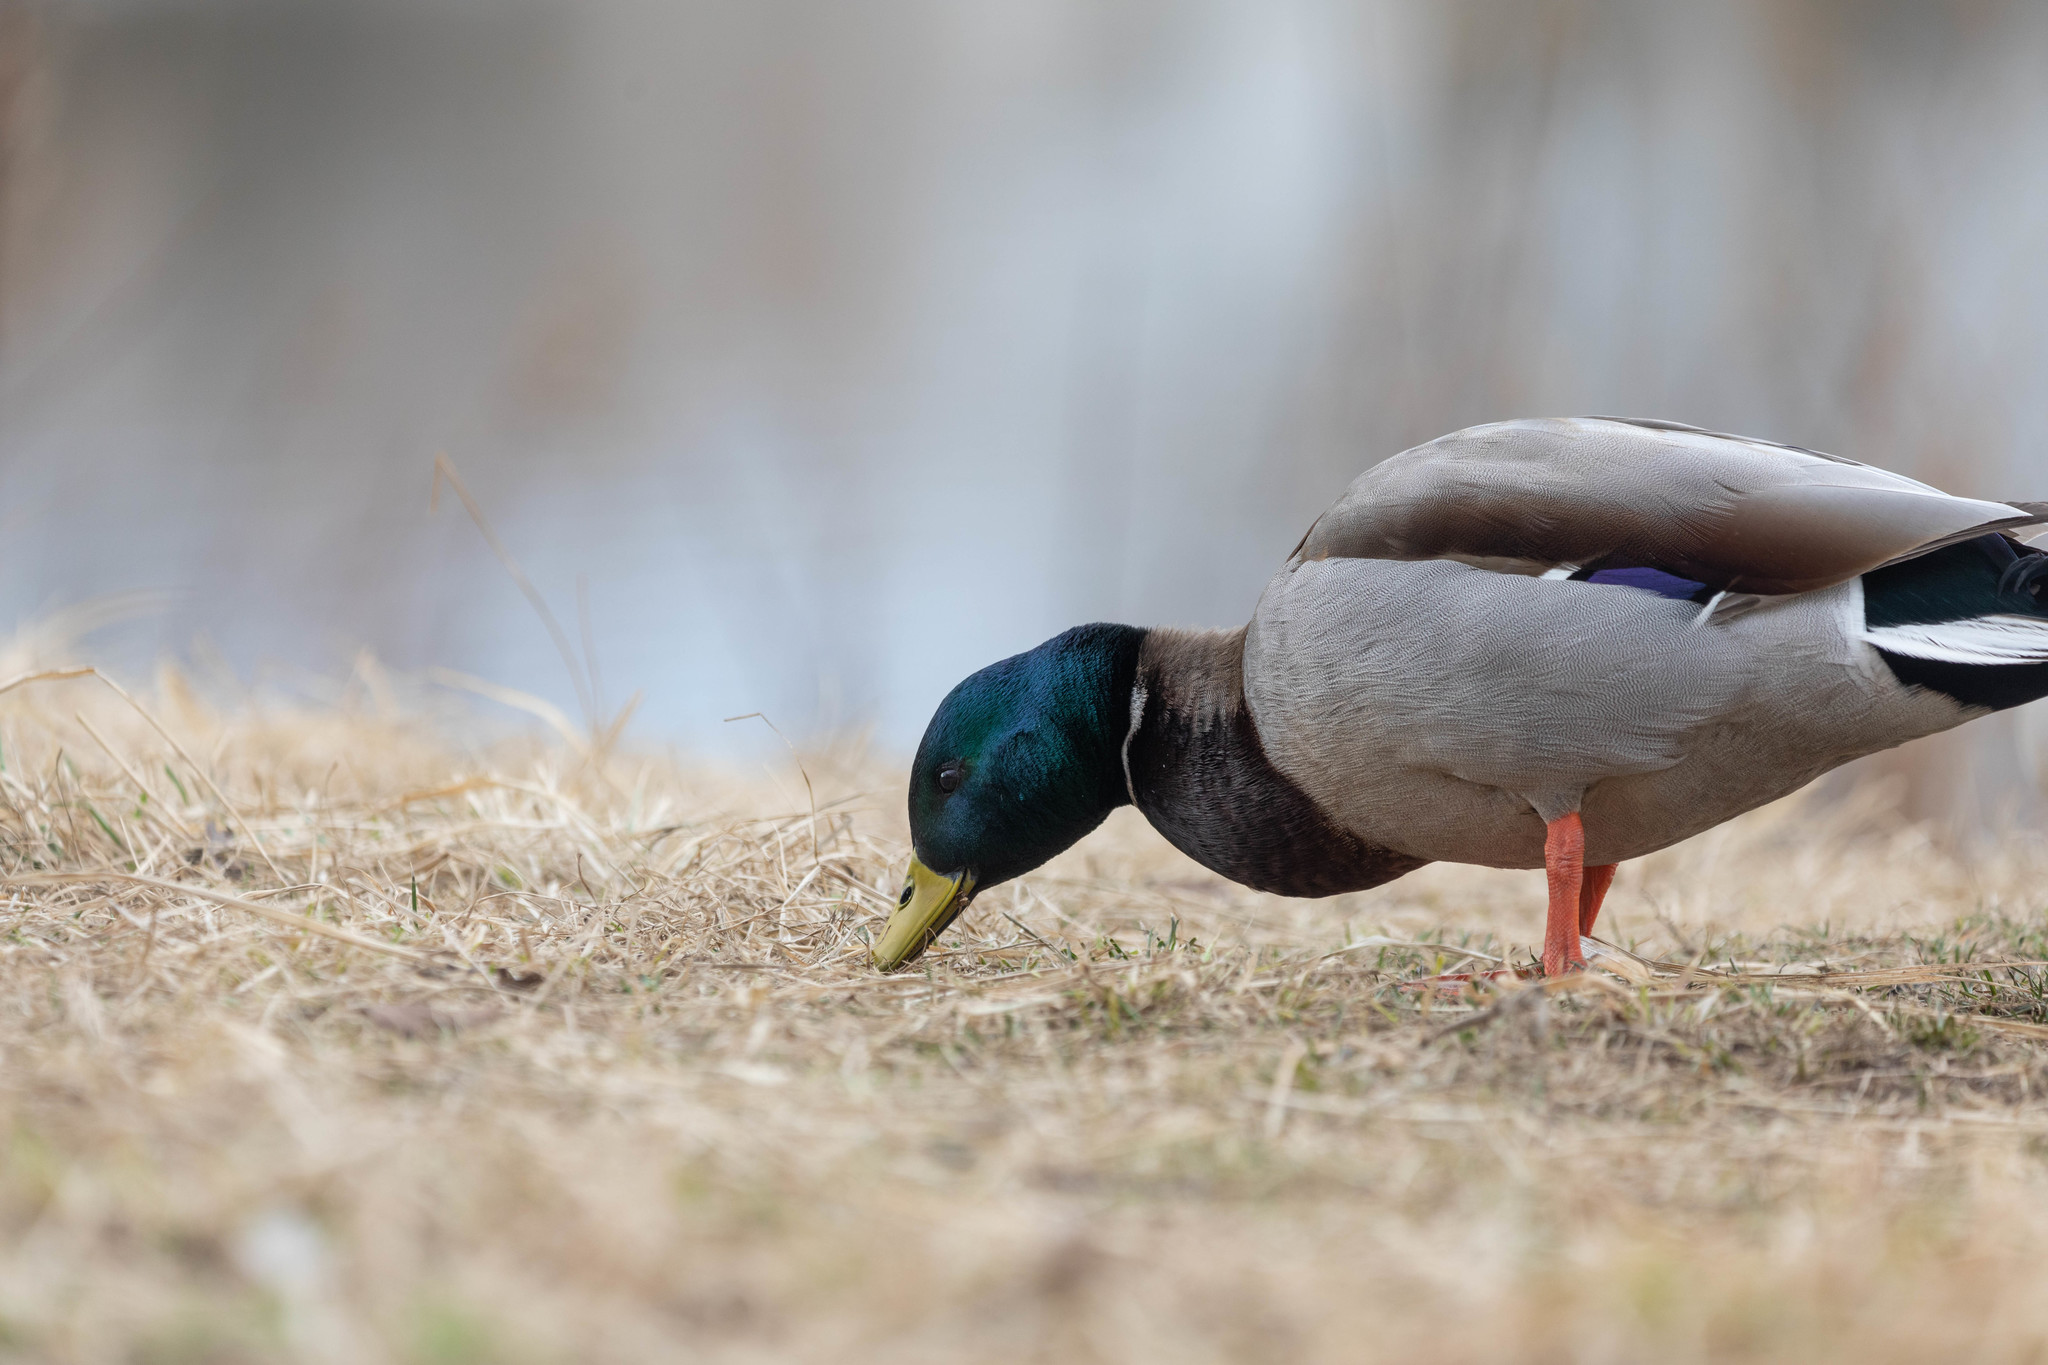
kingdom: Animalia
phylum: Chordata
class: Aves
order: Anseriformes
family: Anatidae
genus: Anas
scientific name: Anas platyrhynchos
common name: Mallard
